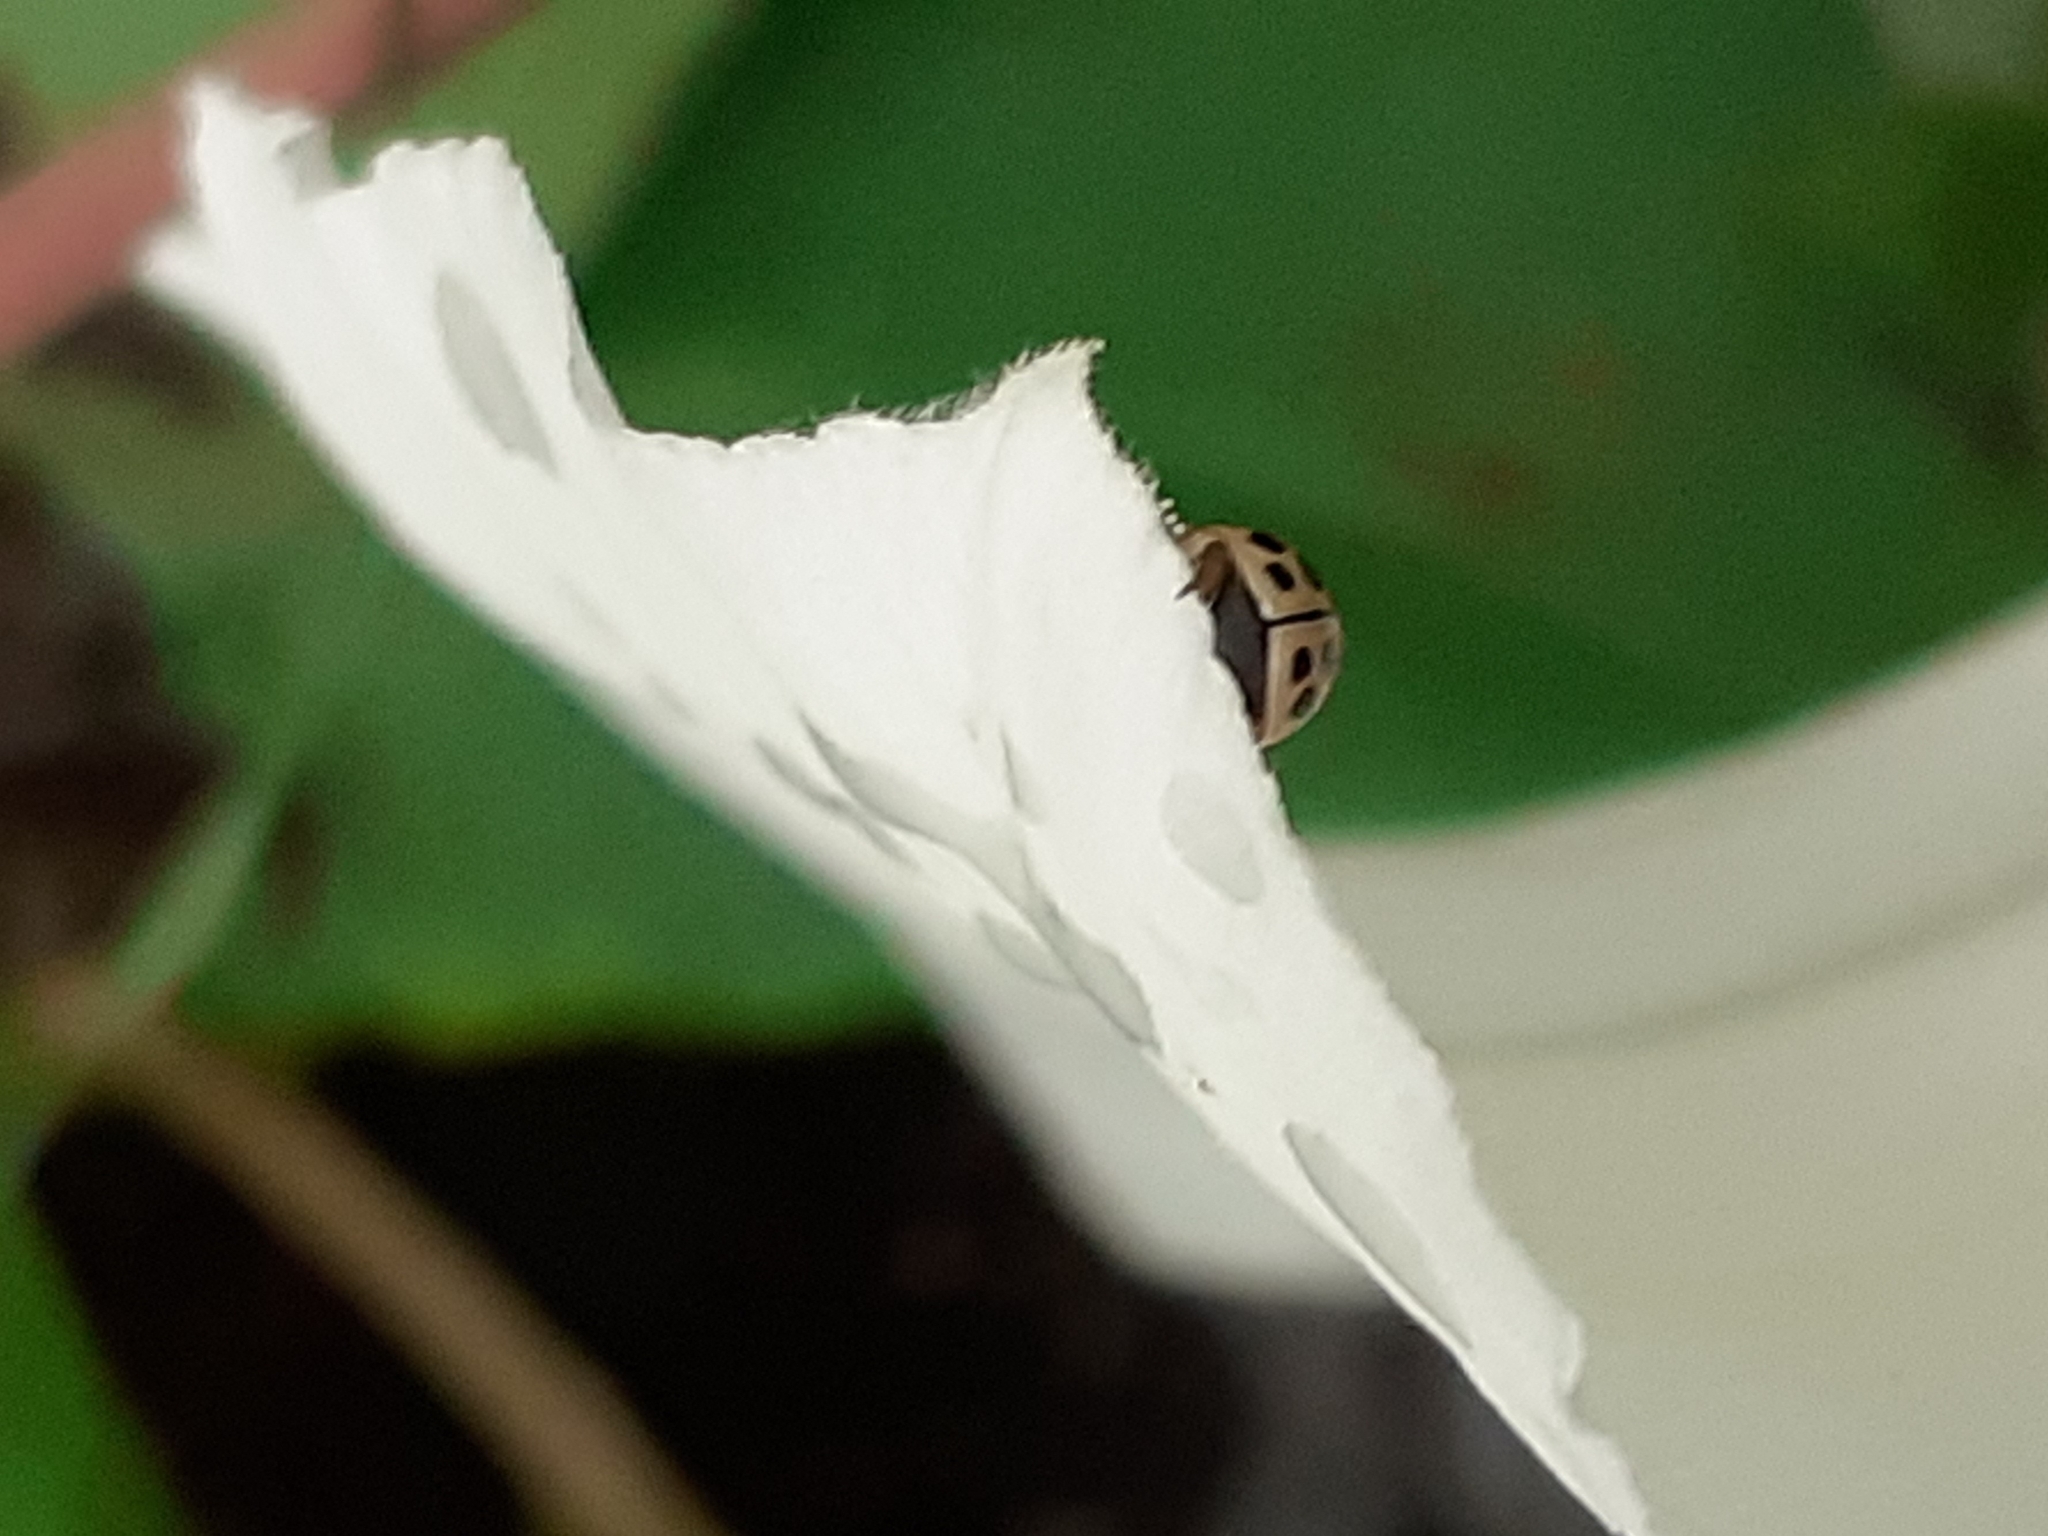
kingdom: Animalia
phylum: Arthropoda
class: Insecta
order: Coleoptera
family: Coccinellidae
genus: Tytthaspis
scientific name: Tytthaspis sedecimpunctata
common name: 16-spot ladybird
